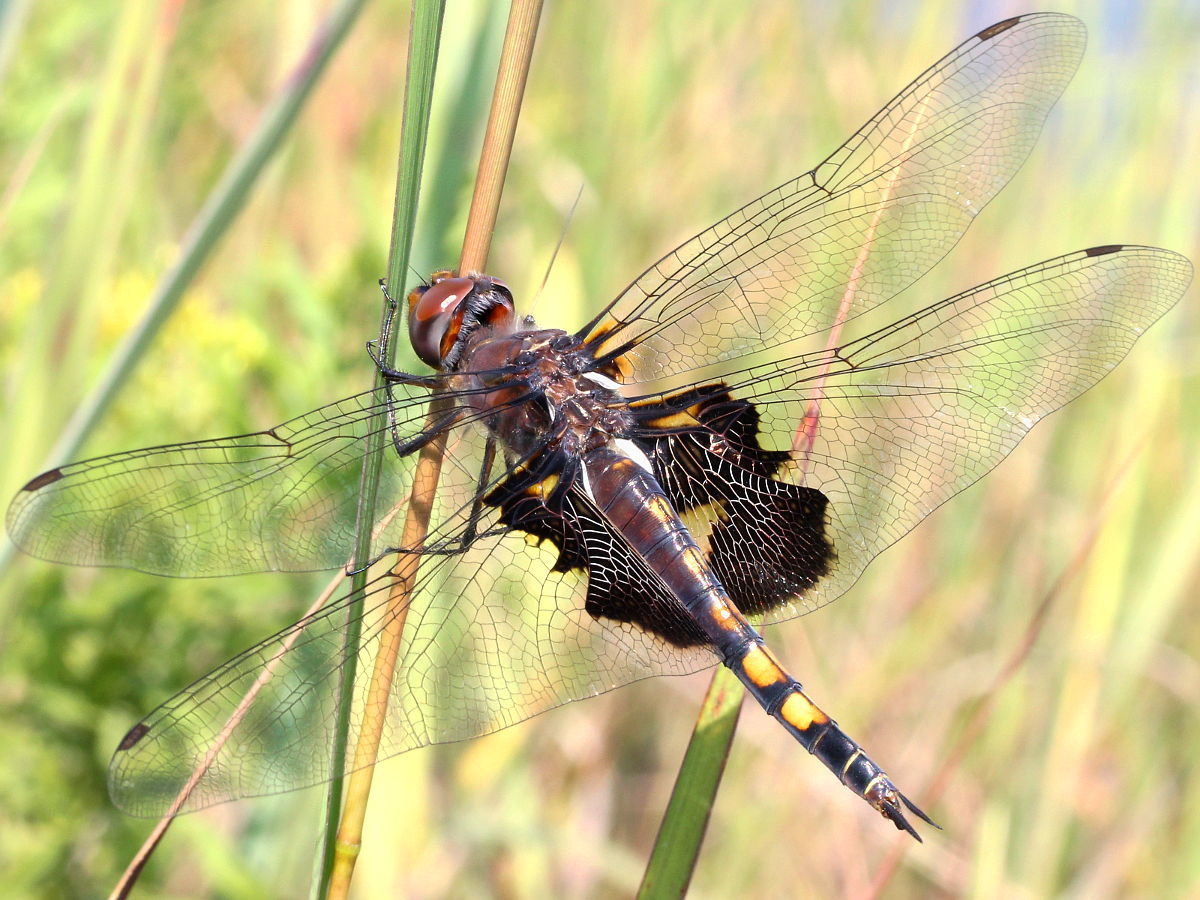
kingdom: Animalia
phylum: Arthropoda
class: Insecta
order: Odonata
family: Libellulidae
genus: Tramea
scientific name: Tramea lacerata
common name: Black saddlebags
